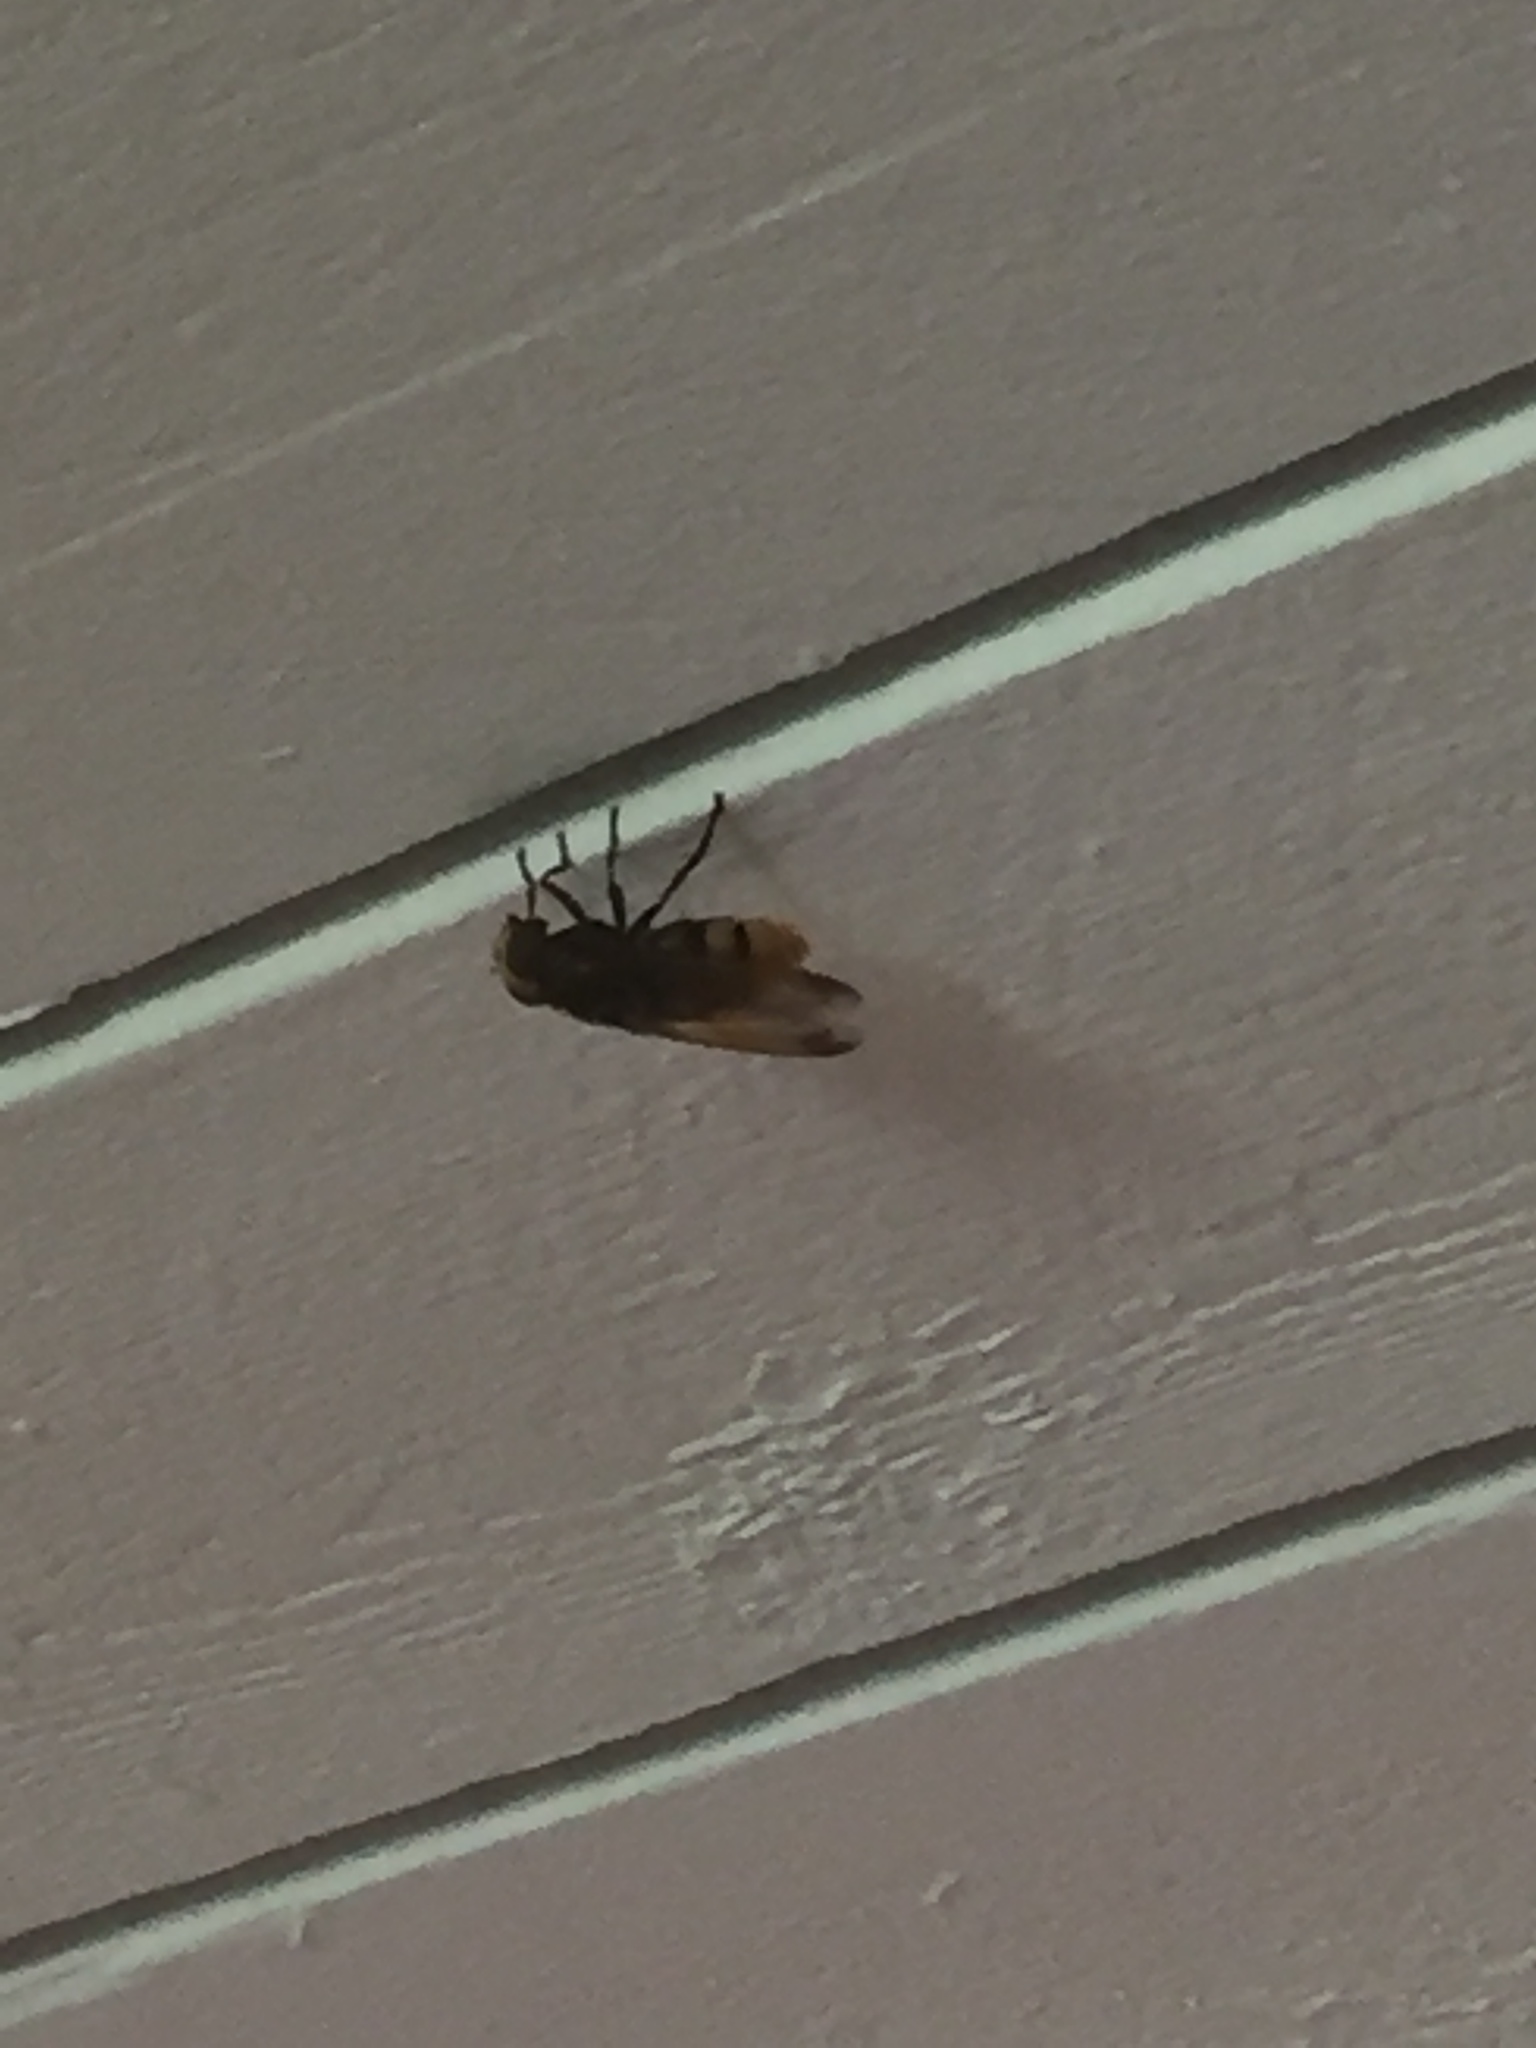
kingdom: Animalia
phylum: Arthropoda
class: Insecta
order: Diptera
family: Syrphidae
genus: Volucella
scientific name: Volucella zonaria
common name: Hornet hoverfly
